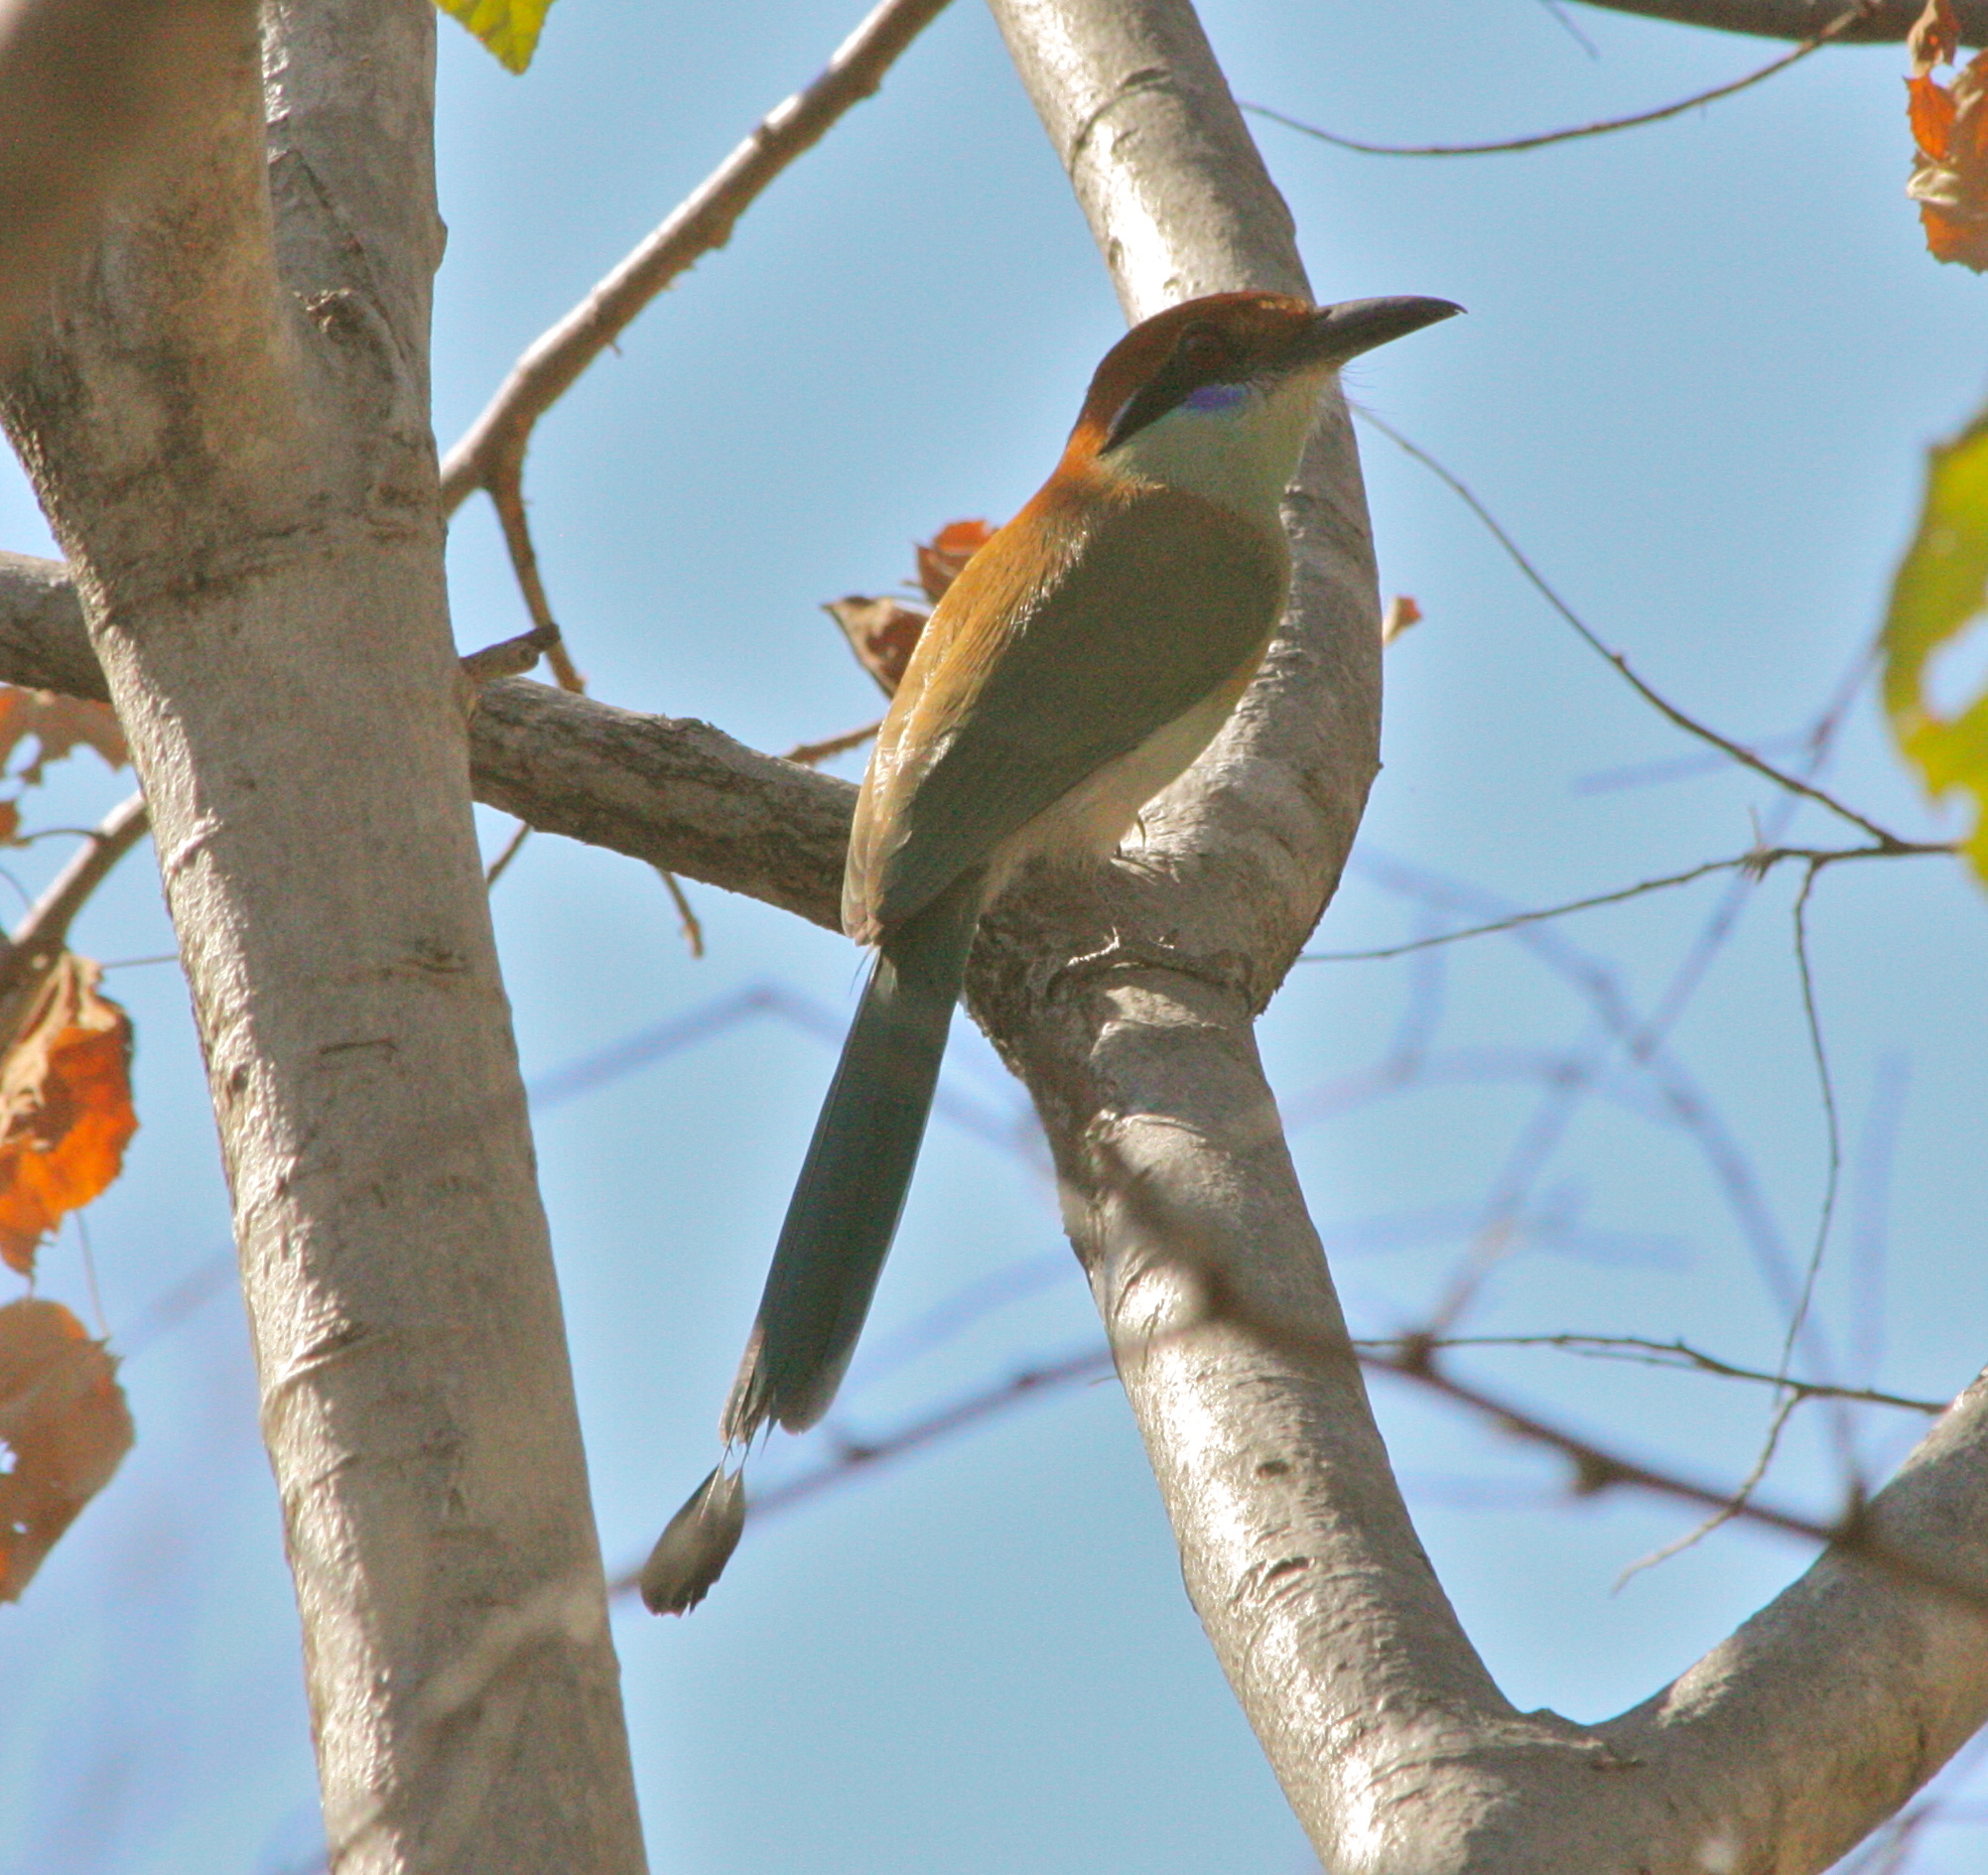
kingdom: Animalia
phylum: Chordata
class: Aves
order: Coraciiformes
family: Momotidae
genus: Momotus
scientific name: Momotus mexicanus
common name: Russet-crowned motmot
